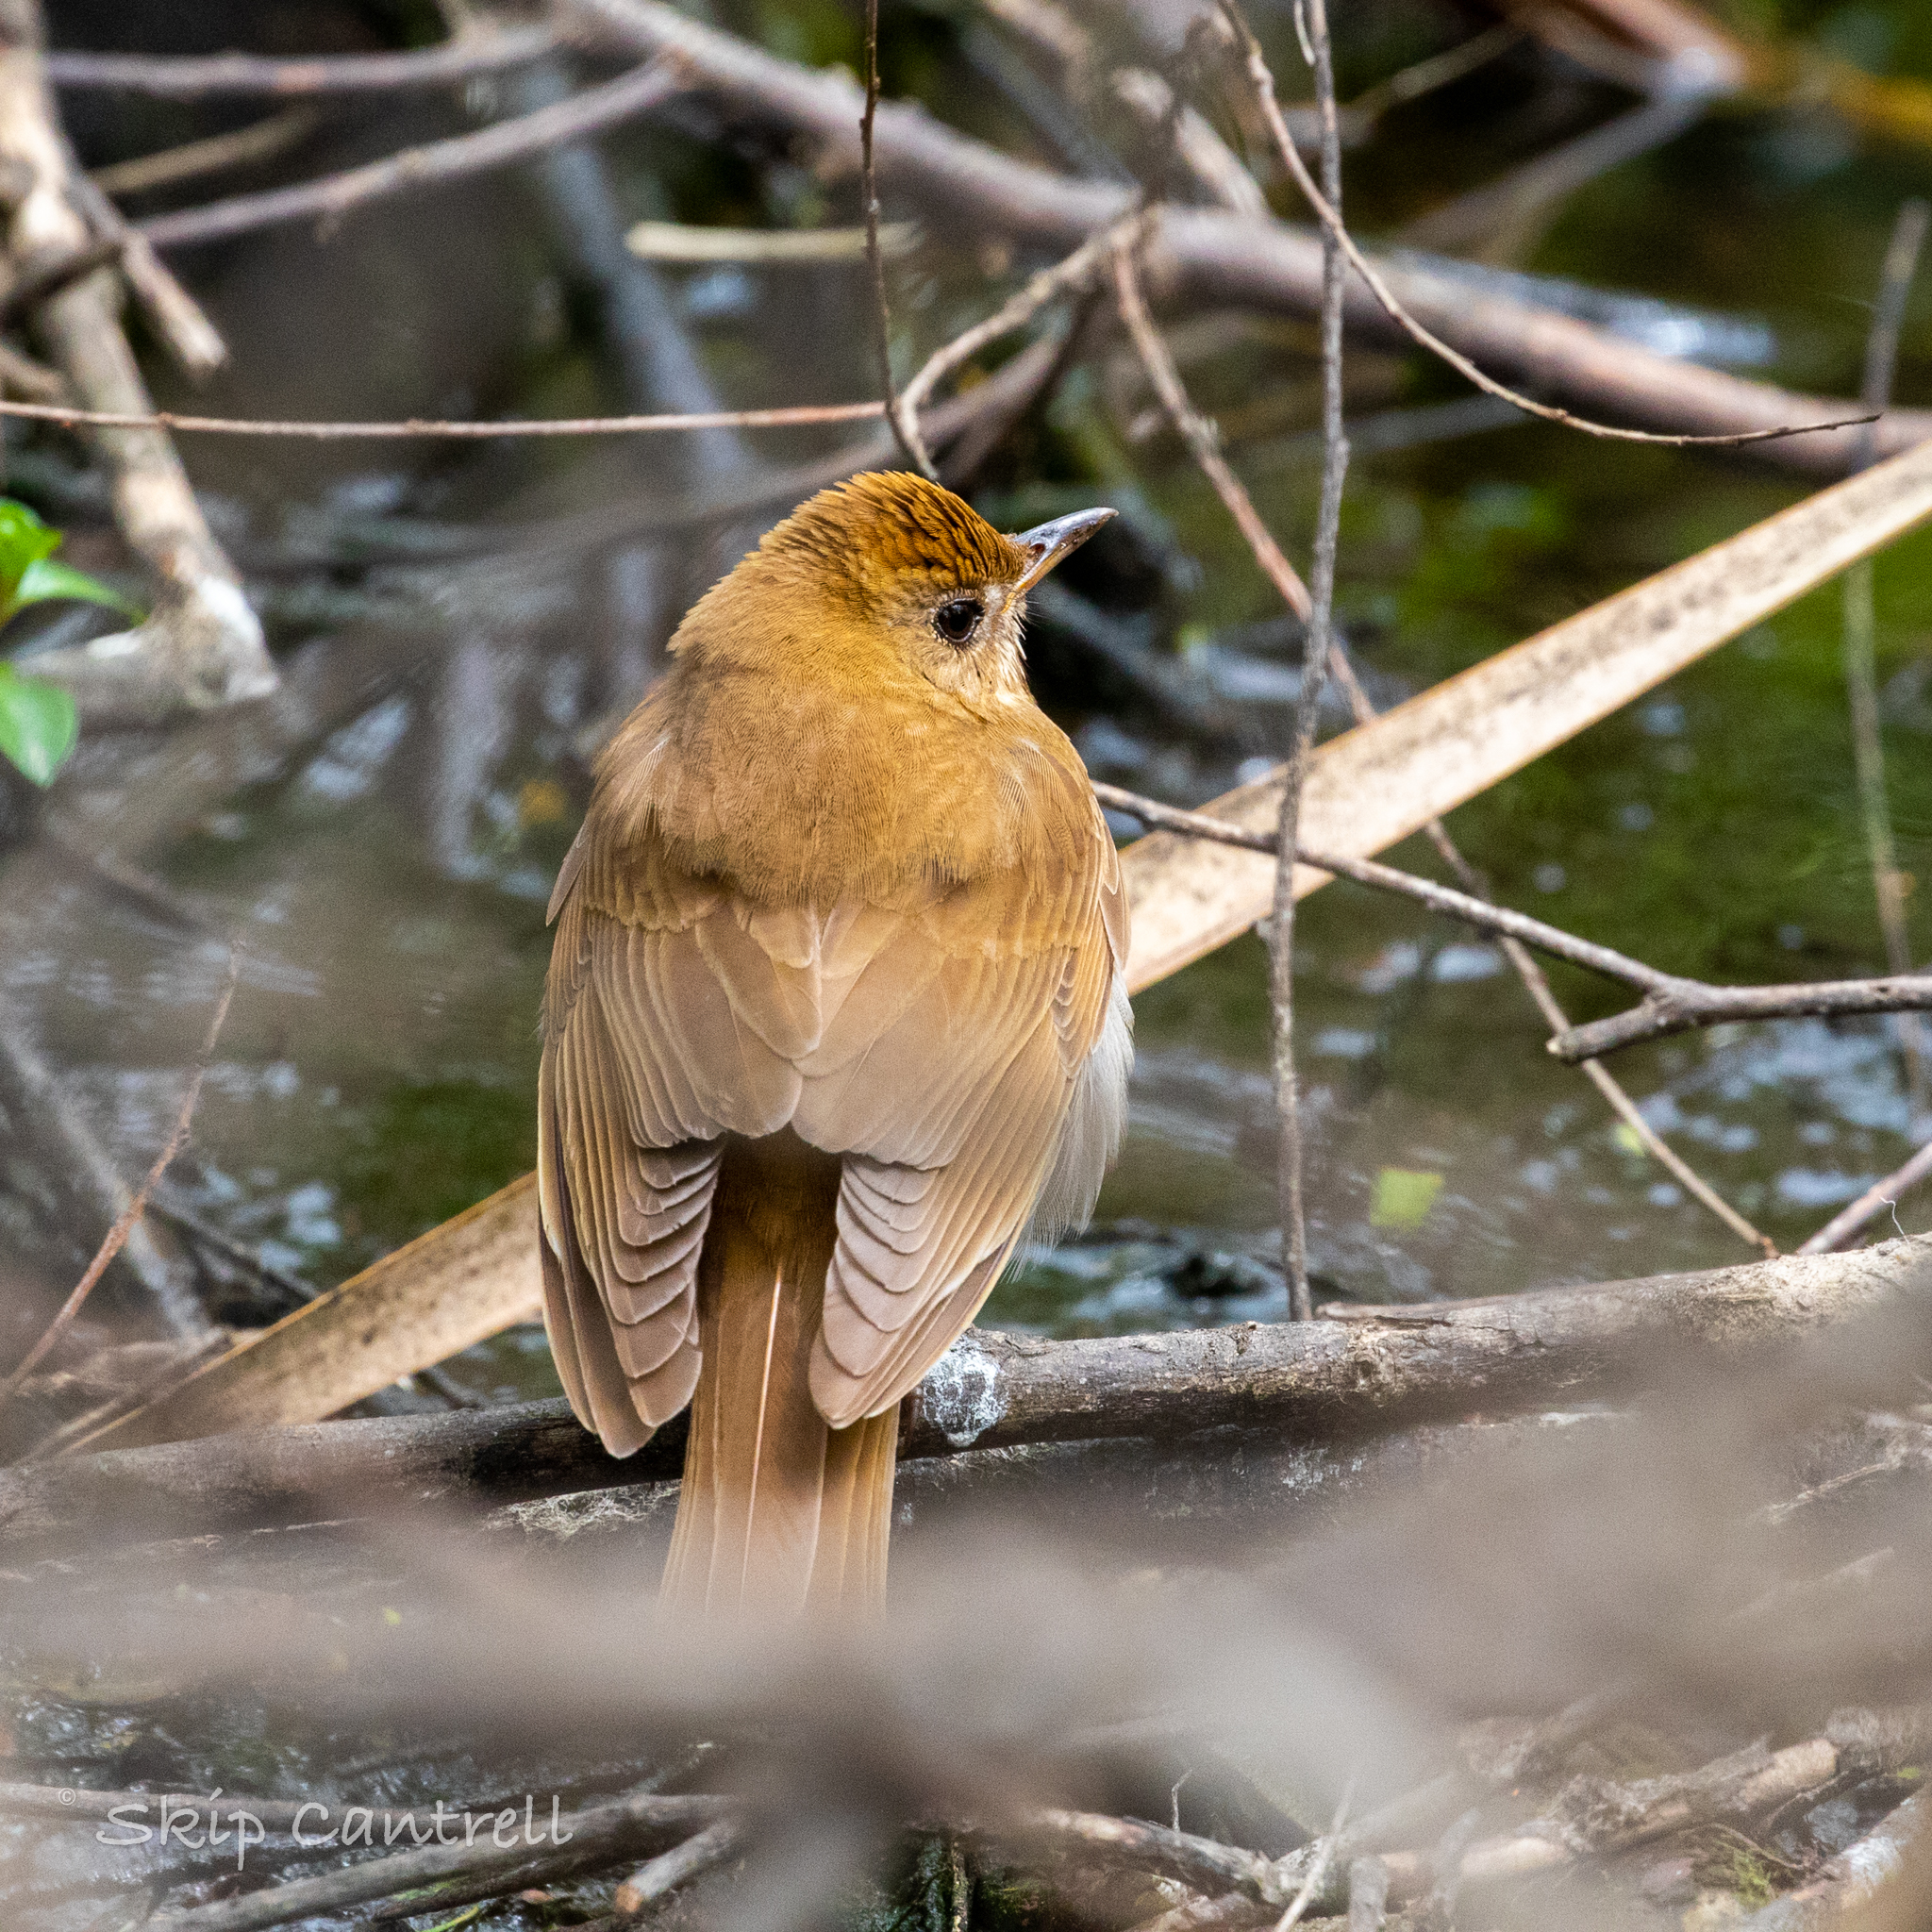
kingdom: Animalia
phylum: Chordata
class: Aves
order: Passeriformes
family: Turdidae
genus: Catharus
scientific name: Catharus fuscescens
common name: Veery
